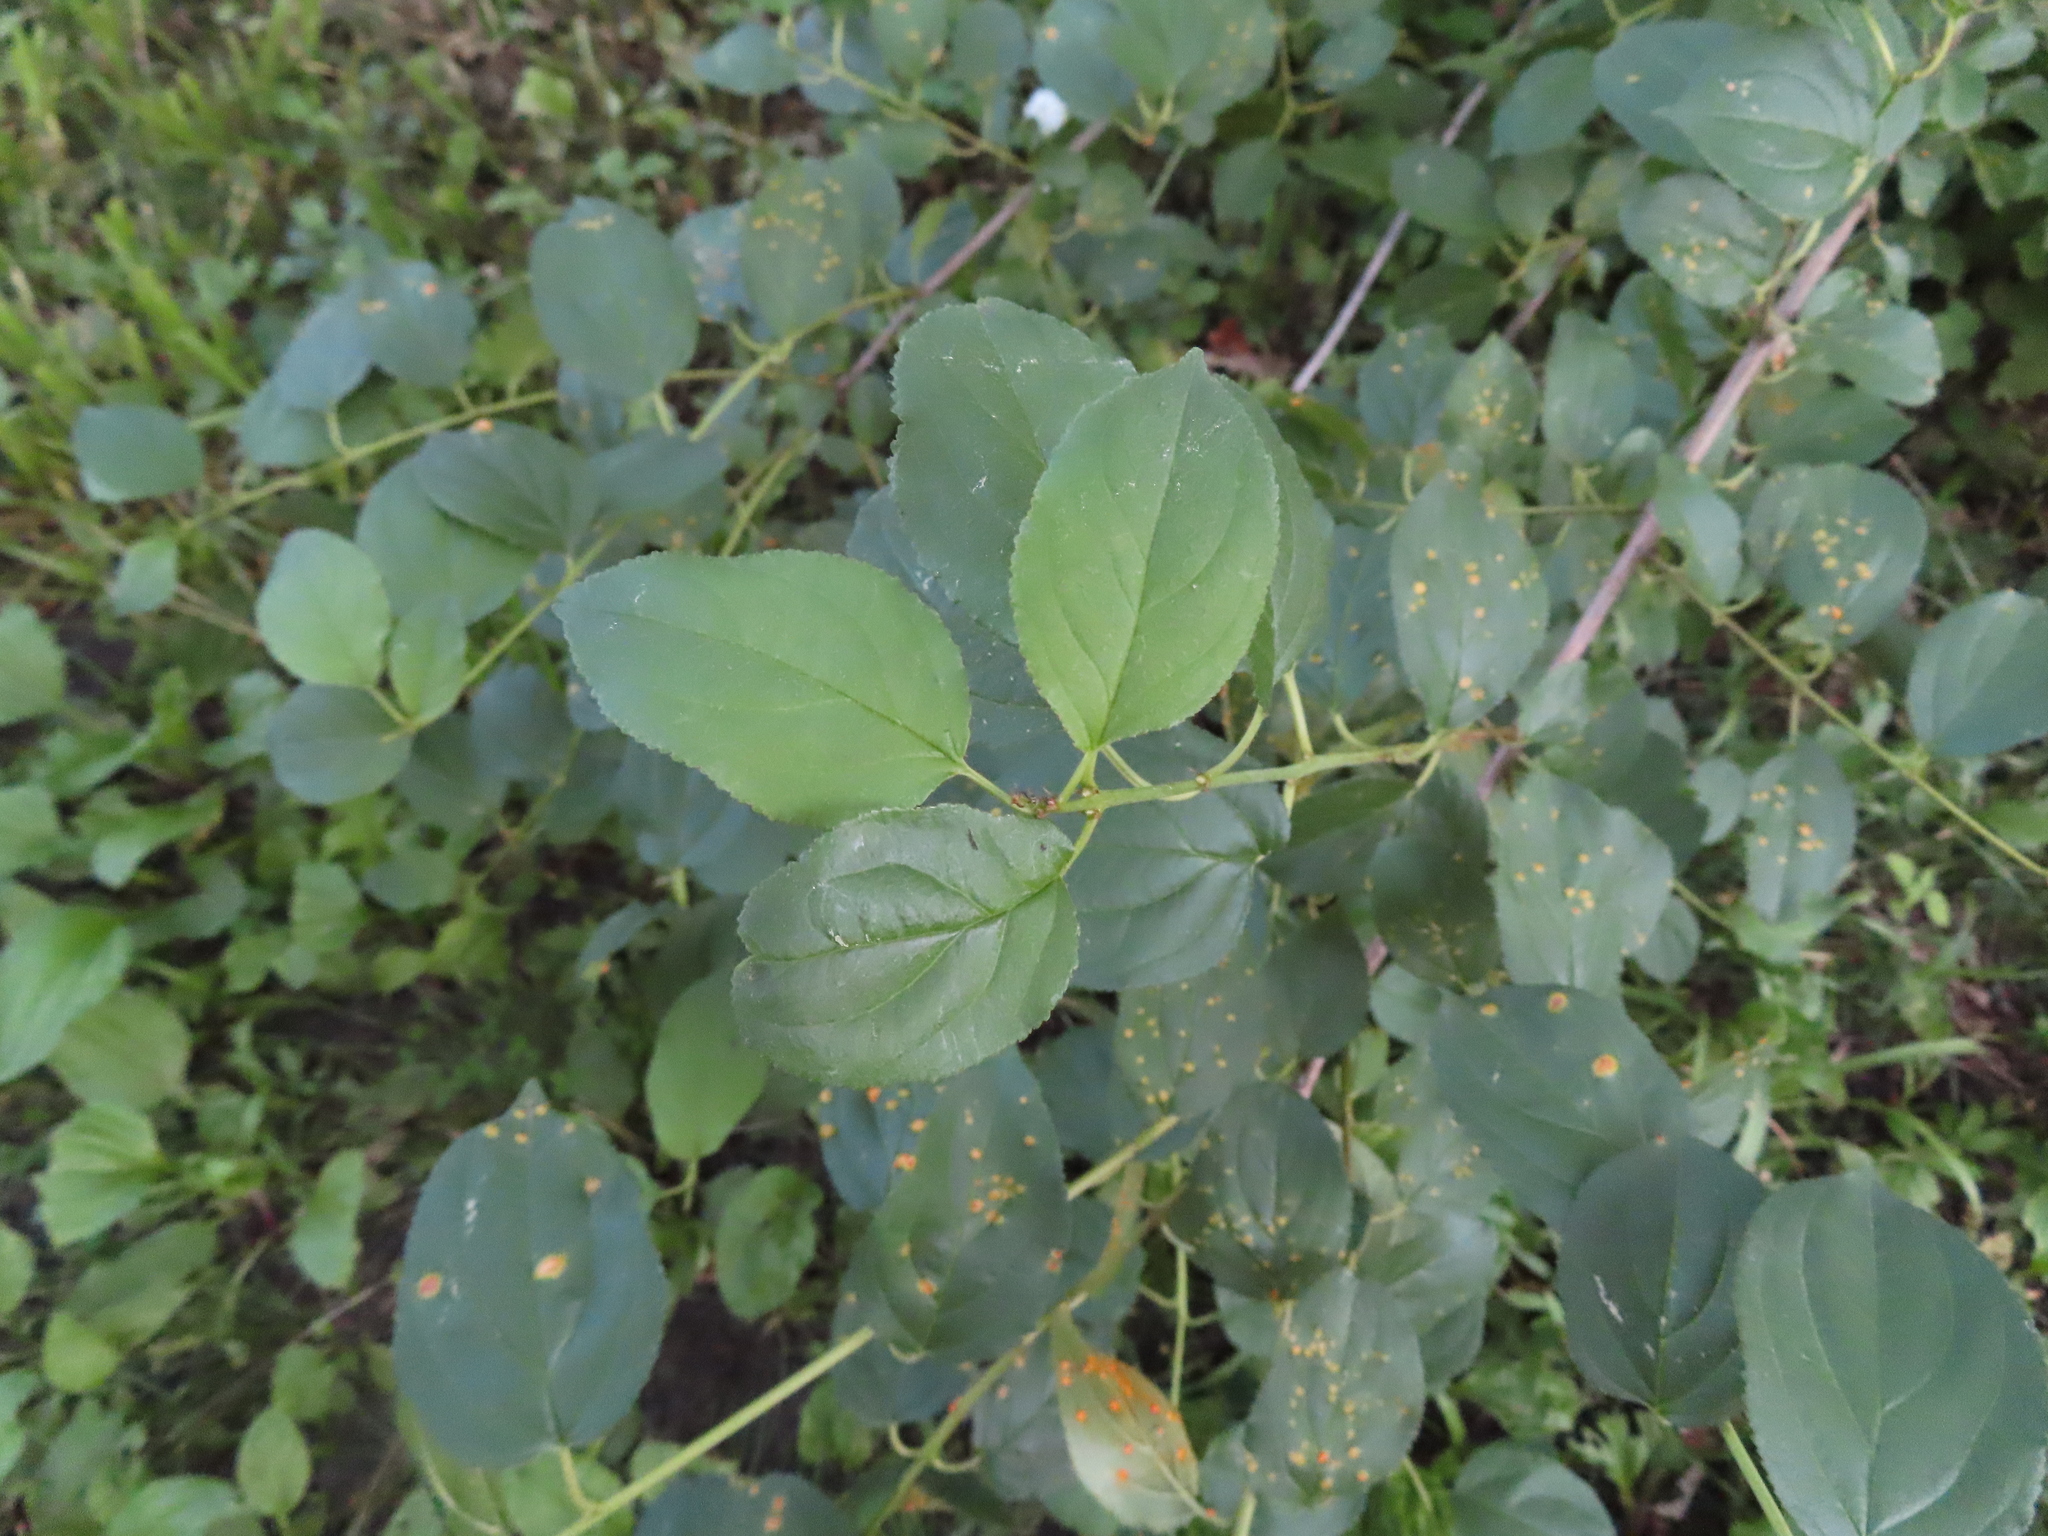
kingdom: Plantae
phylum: Tracheophyta
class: Magnoliopsida
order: Rosales
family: Rhamnaceae
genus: Rhamnus
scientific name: Rhamnus cathartica
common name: Common buckthorn
